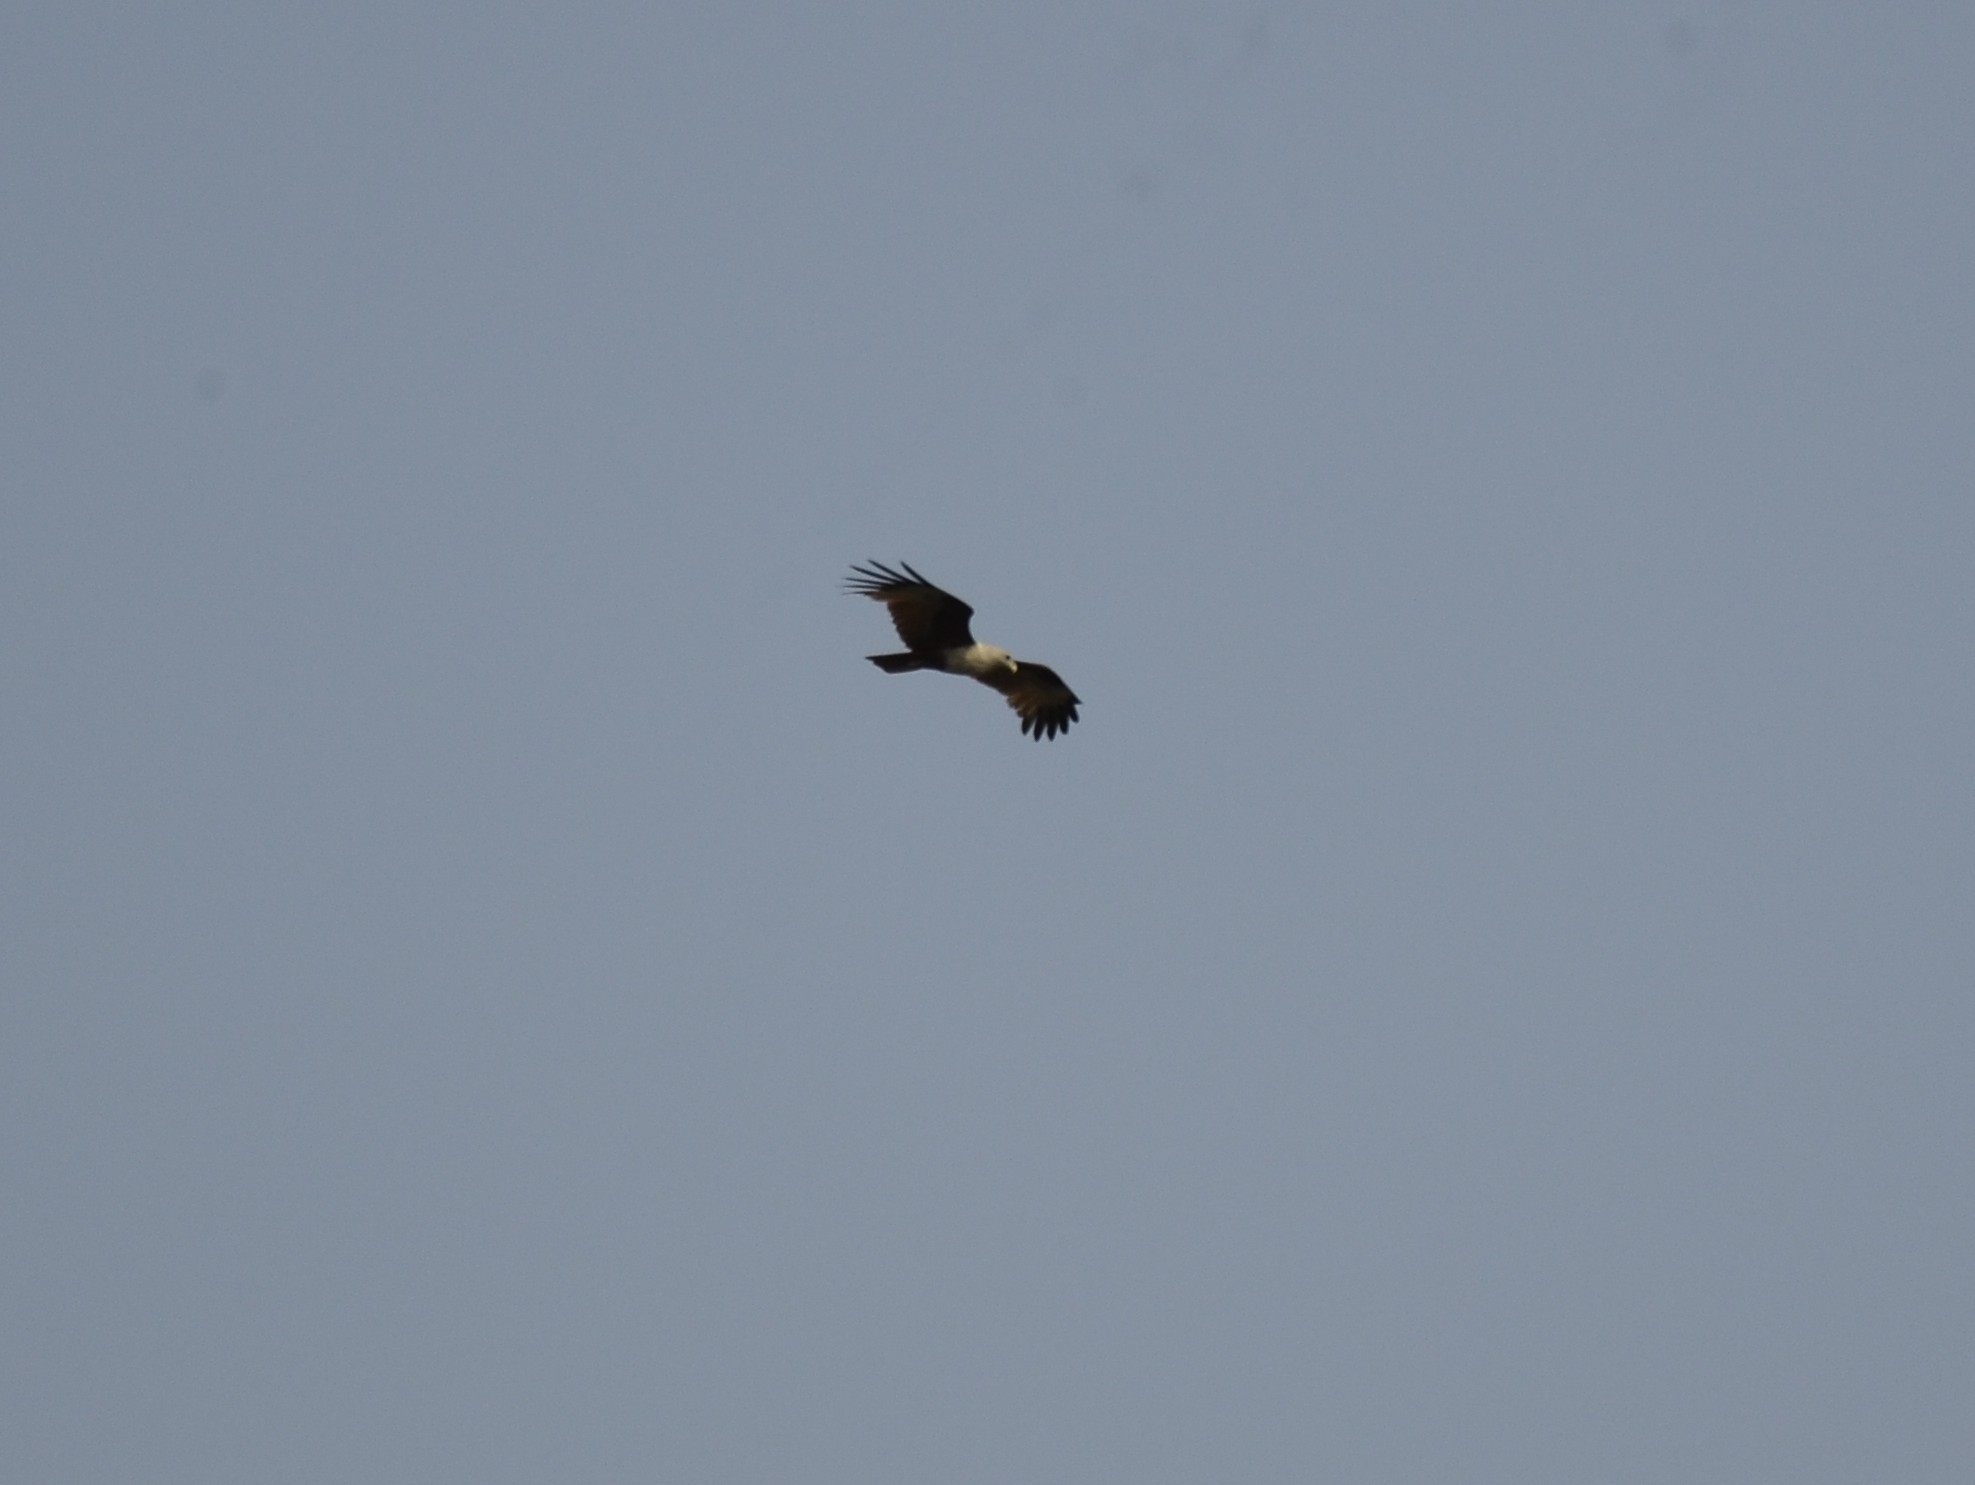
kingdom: Animalia
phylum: Chordata
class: Aves
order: Accipitriformes
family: Accipitridae
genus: Haliastur
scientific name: Haliastur indus
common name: Brahminy kite
